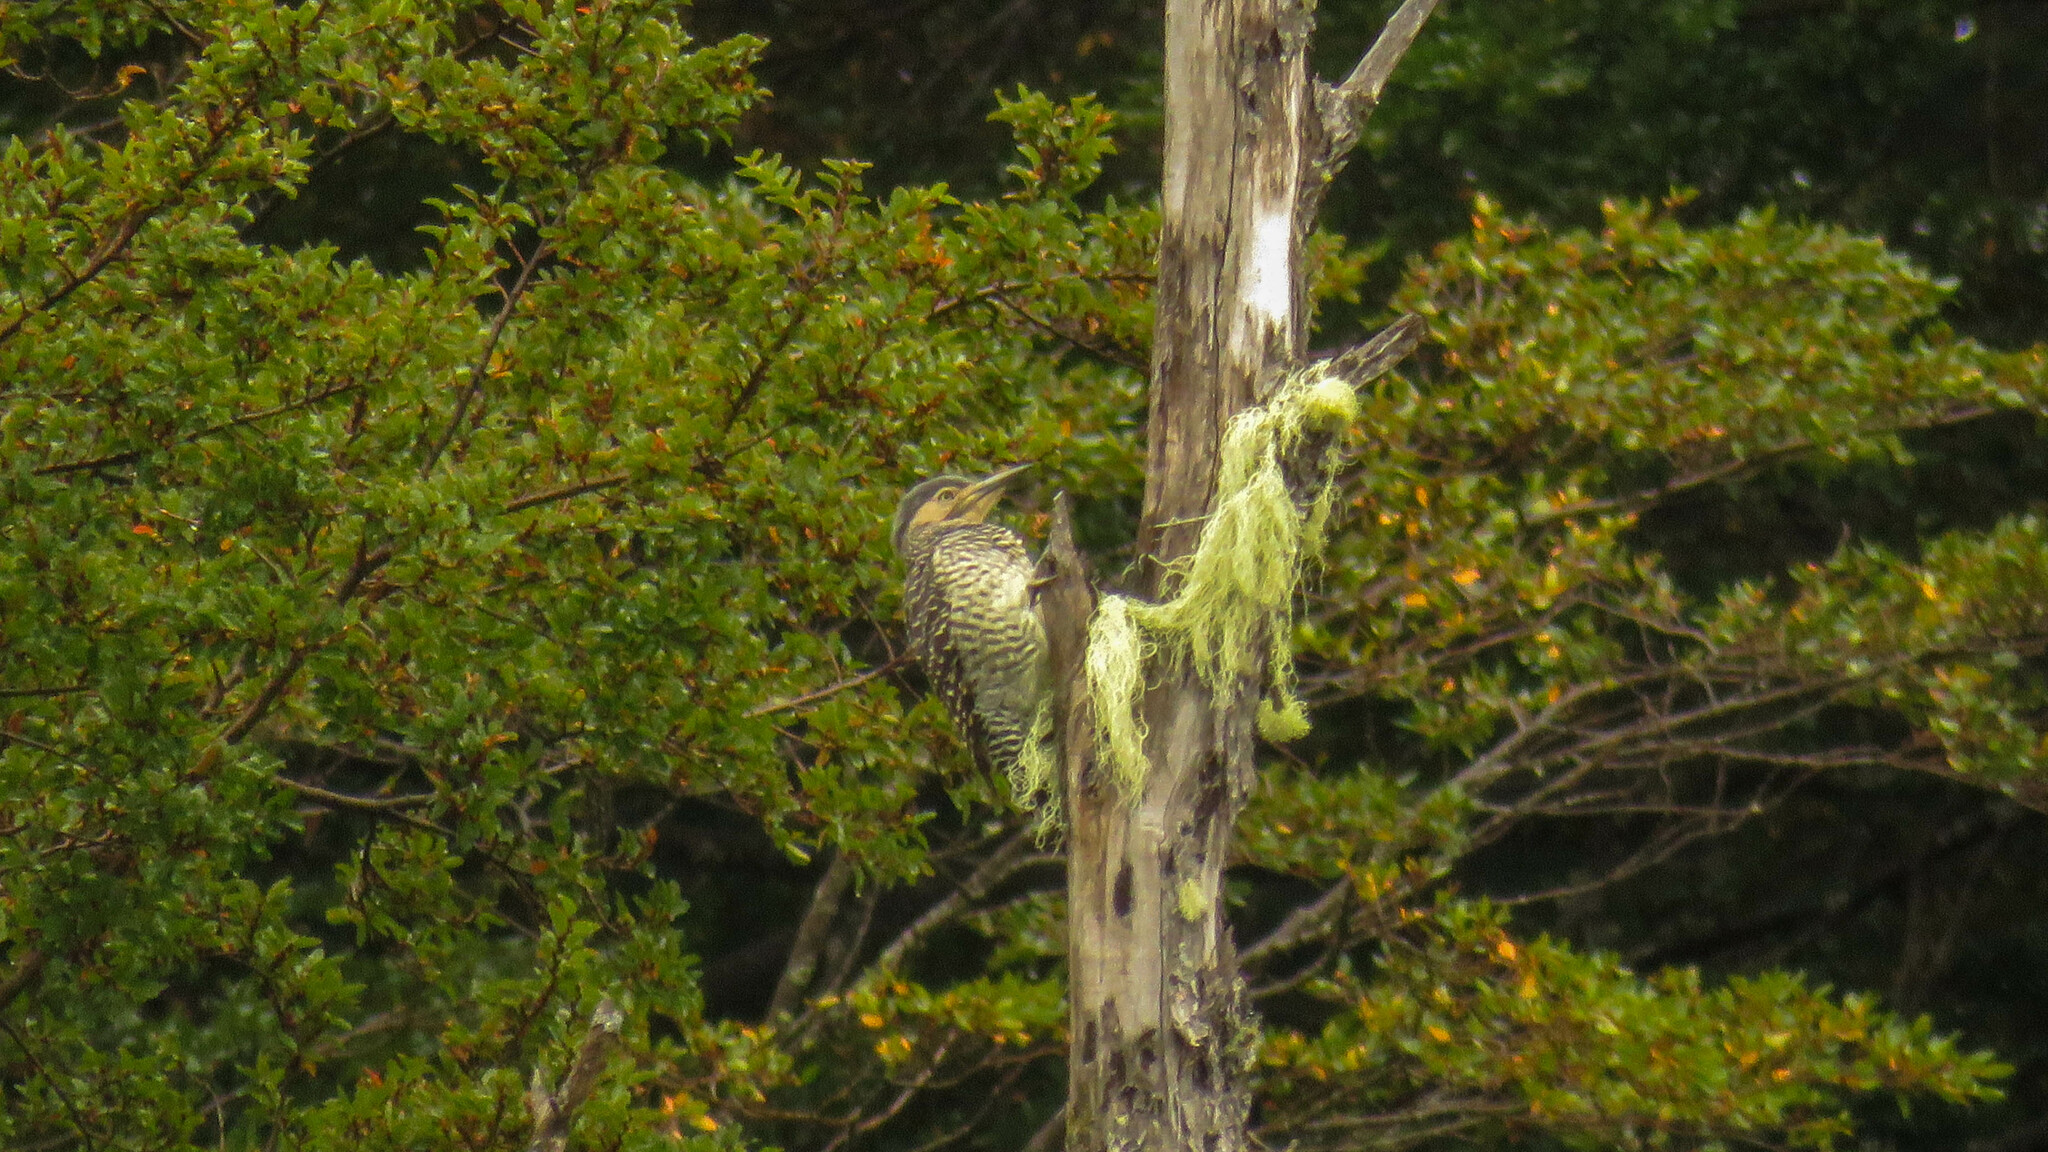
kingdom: Animalia
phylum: Chordata
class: Aves
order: Piciformes
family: Picidae
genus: Colaptes
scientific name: Colaptes pitius
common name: Chilean flicker
